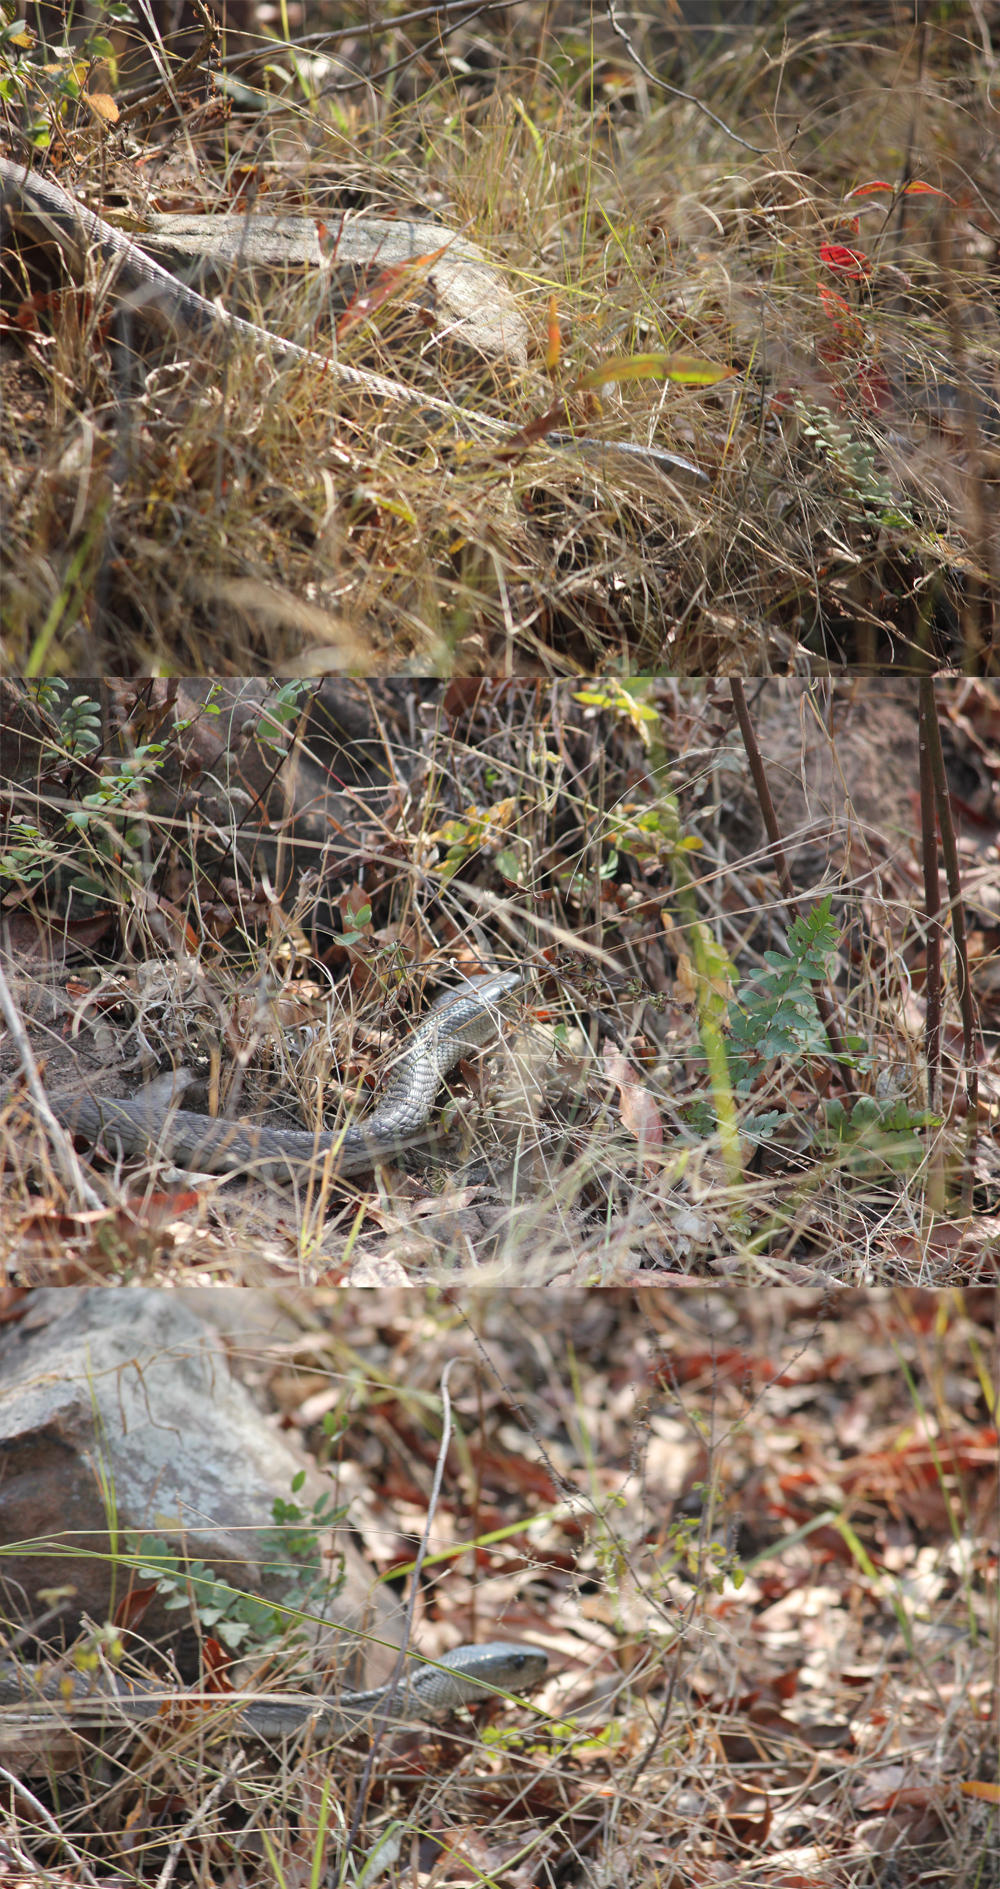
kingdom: Animalia
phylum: Chordata
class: Squamata
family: Elapidae
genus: Dendroaspis
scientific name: Dendroaspis polylepis
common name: Black mamba
